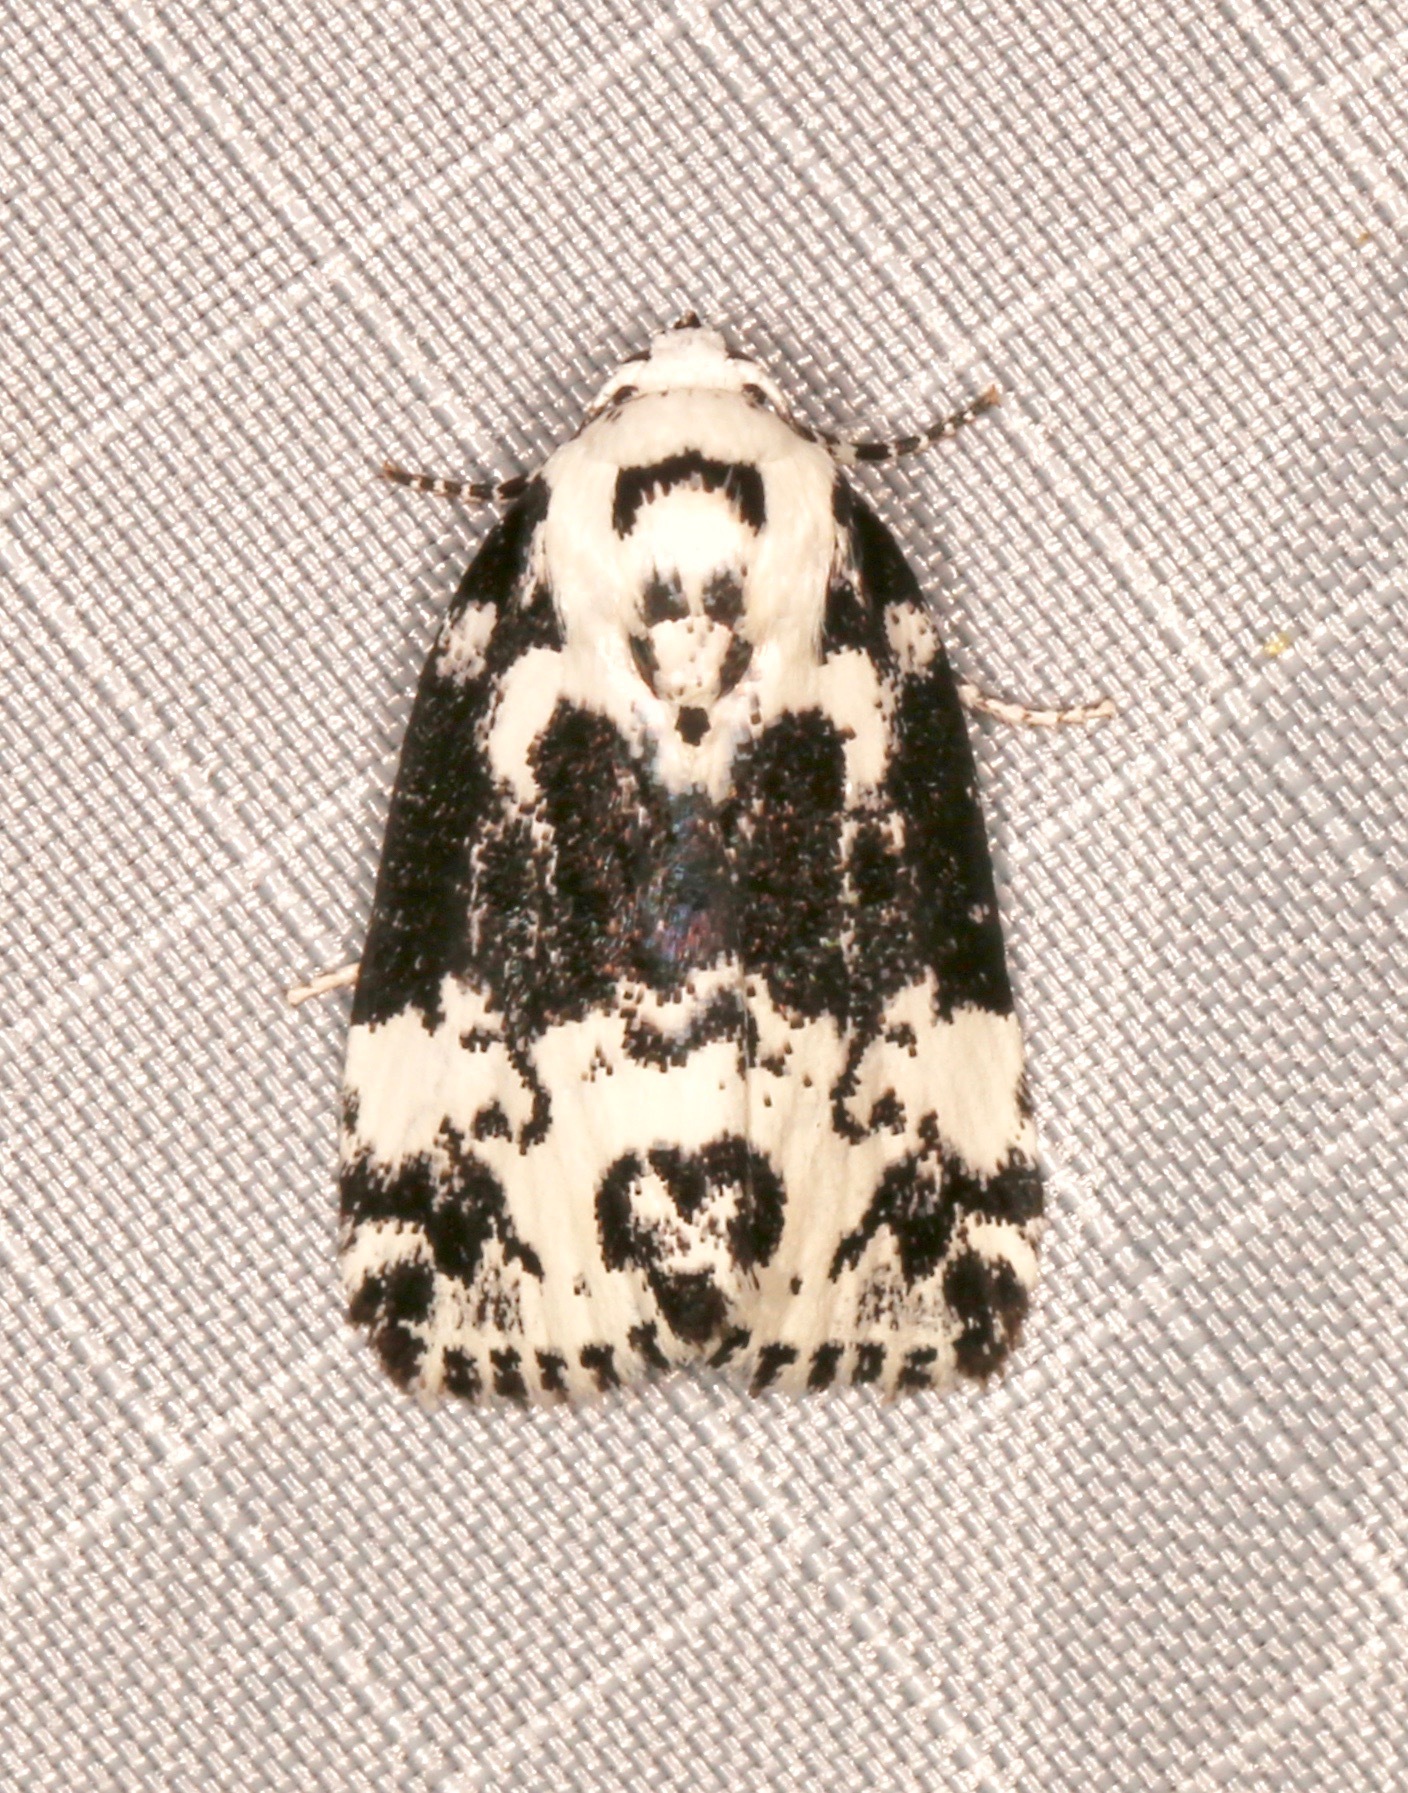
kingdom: Animalia
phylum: Arthropoda
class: Insecta
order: Lepidoptera
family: Noctuidae
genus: Polygrammate
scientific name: Polygrammate hebraeicum
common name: Hebrew moth
